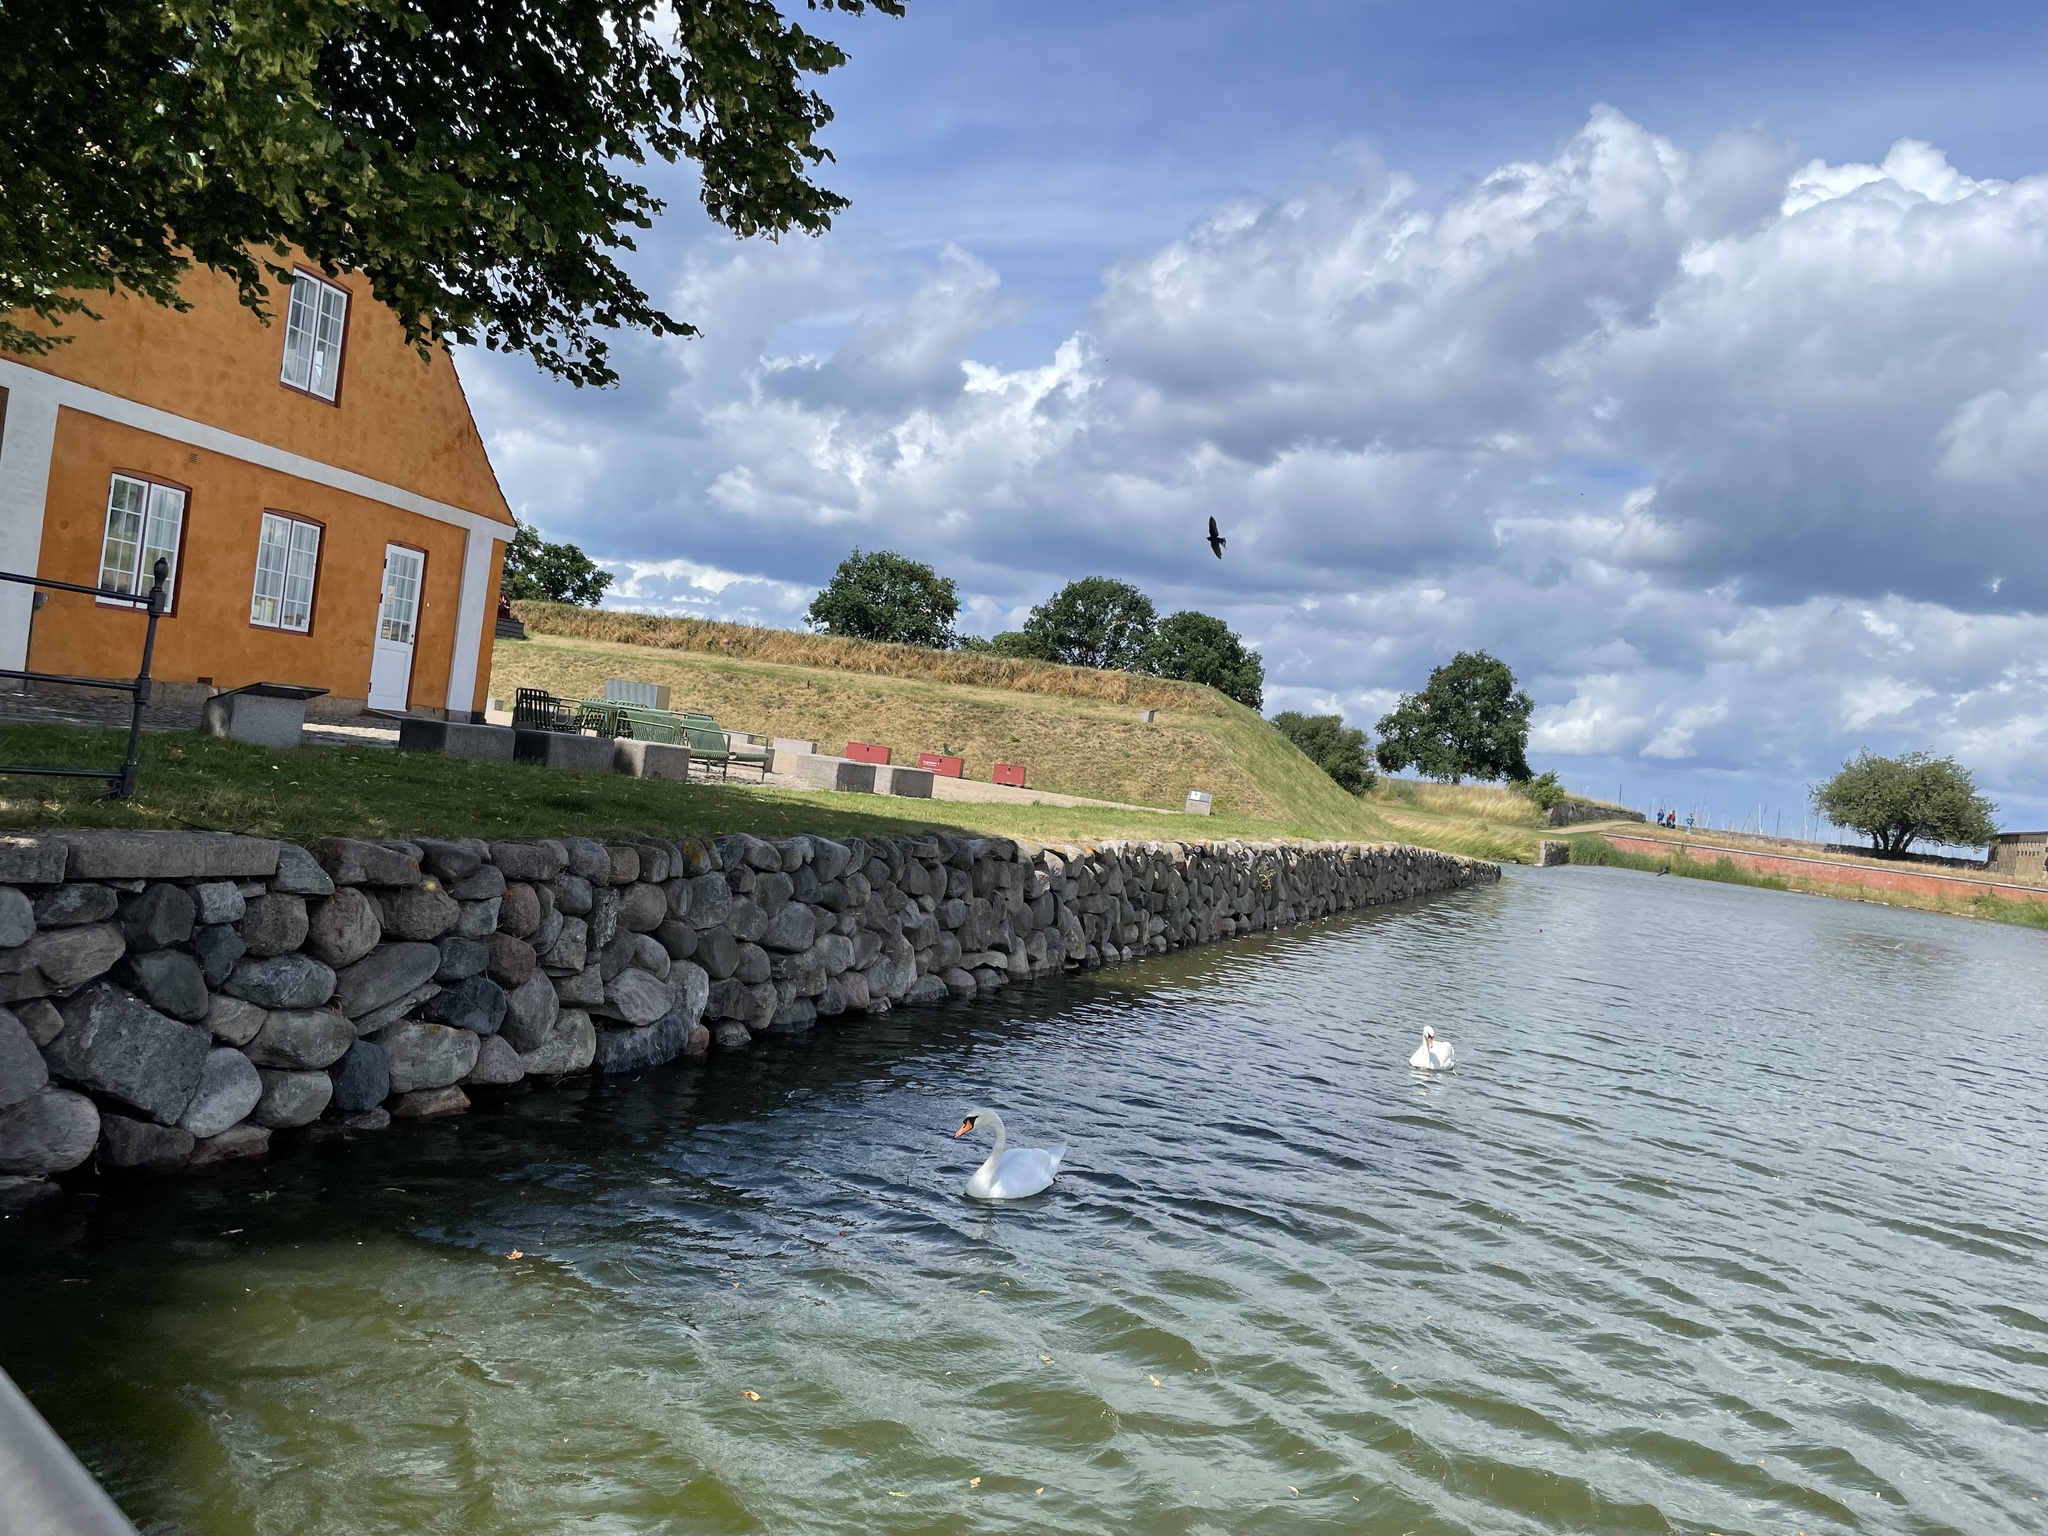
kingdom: Animalia
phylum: Chordata
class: Aves
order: Anseriformes
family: Anatidae
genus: Cygnus
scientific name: Cygnus olor
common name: Mute swan
